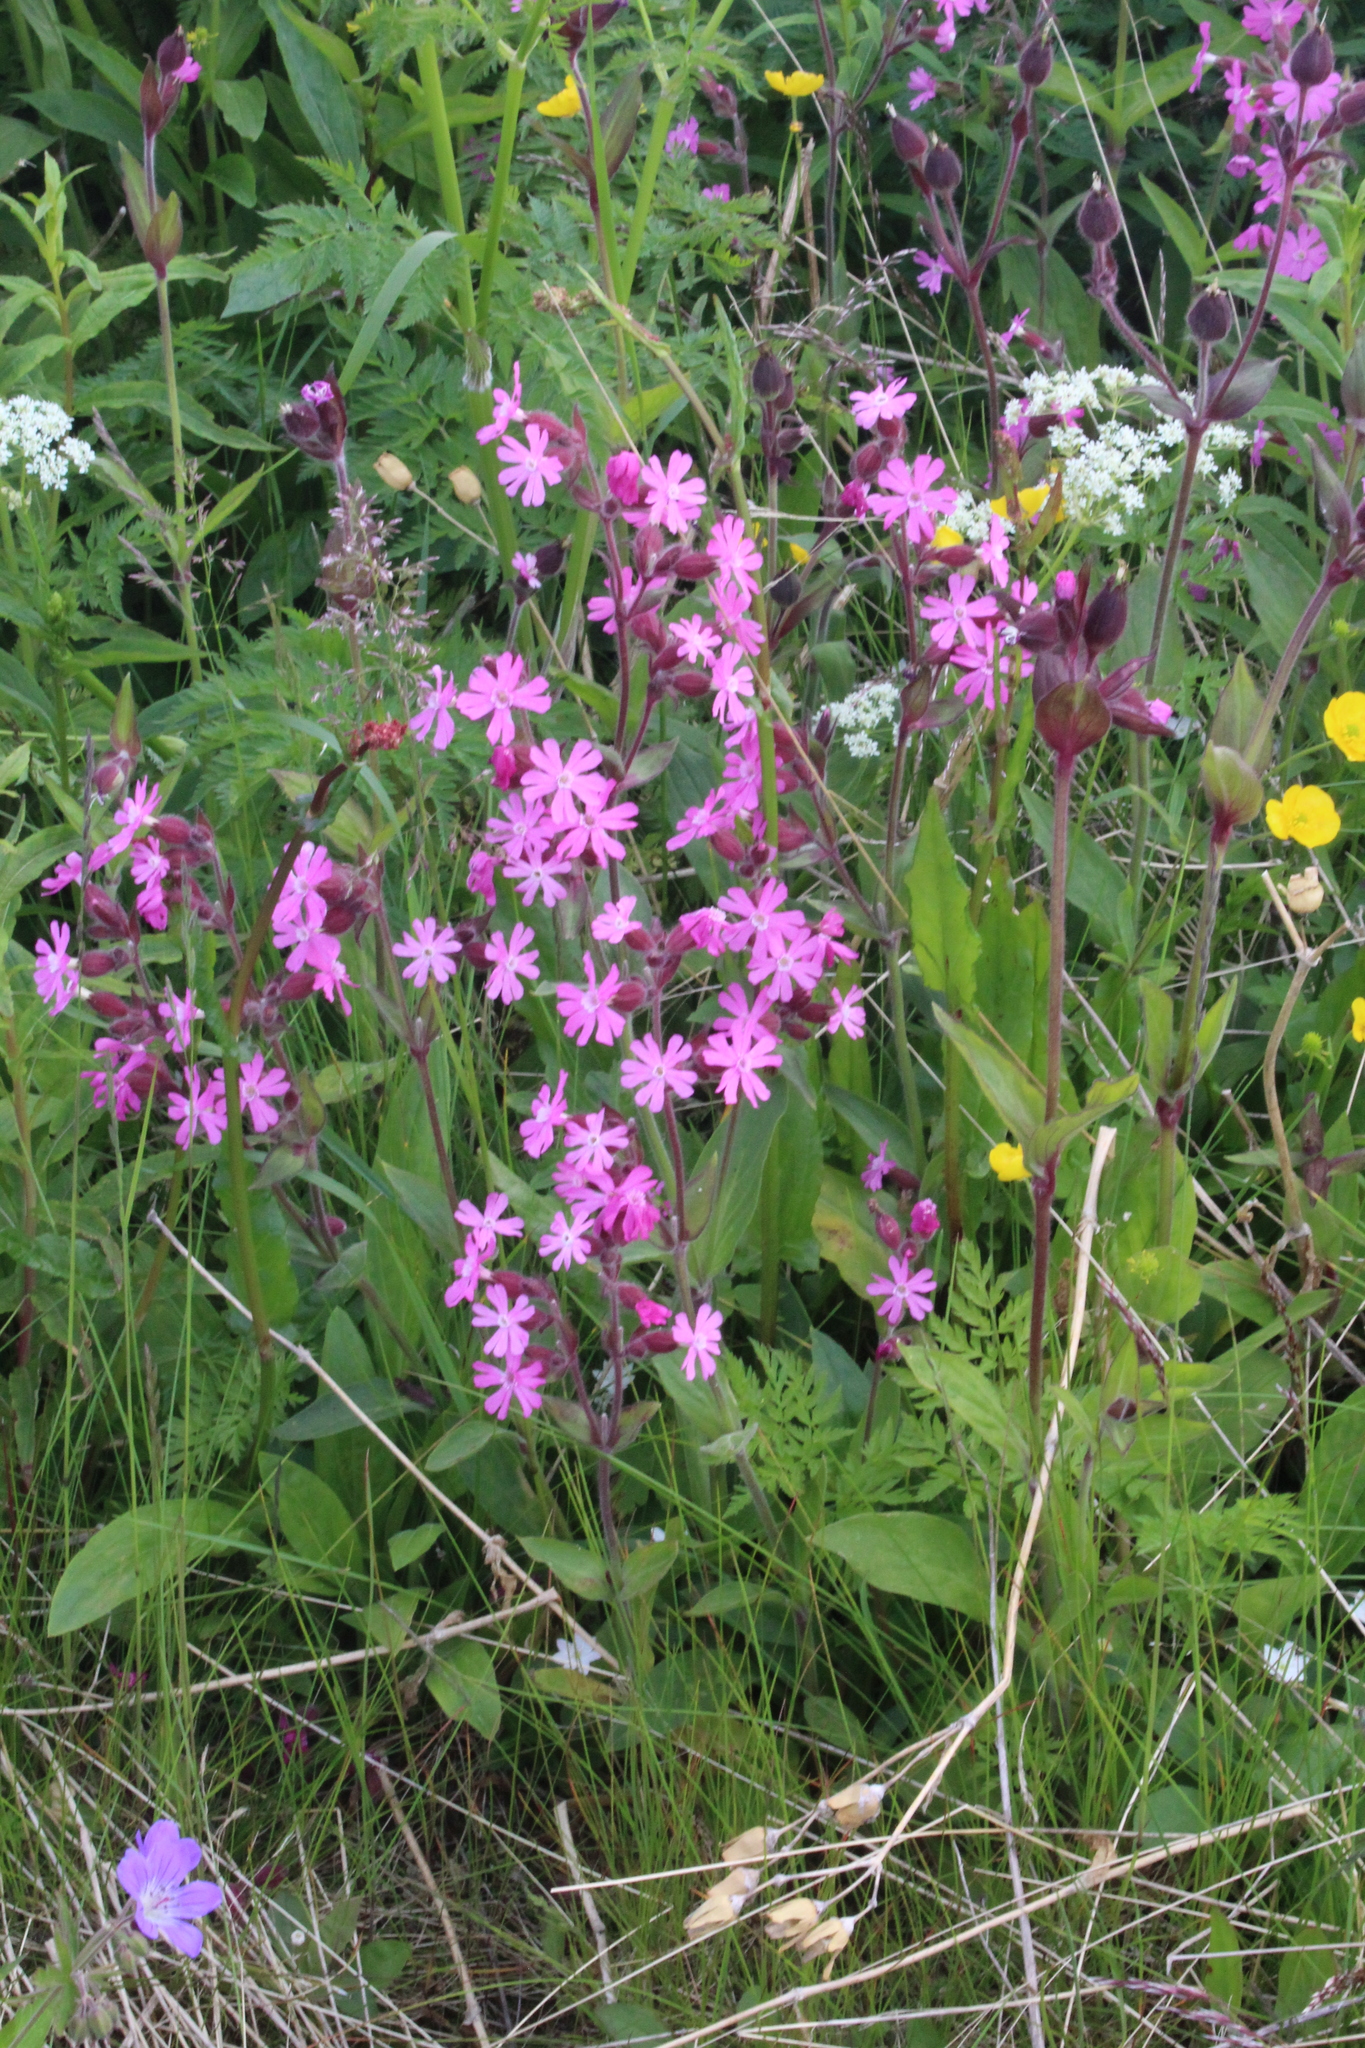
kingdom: Plantae
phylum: Tracheophyta
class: Magnoliopsida
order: Caryophyllales
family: Caryophyllaceae
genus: Silene
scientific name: Silene dioica
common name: Red campion
